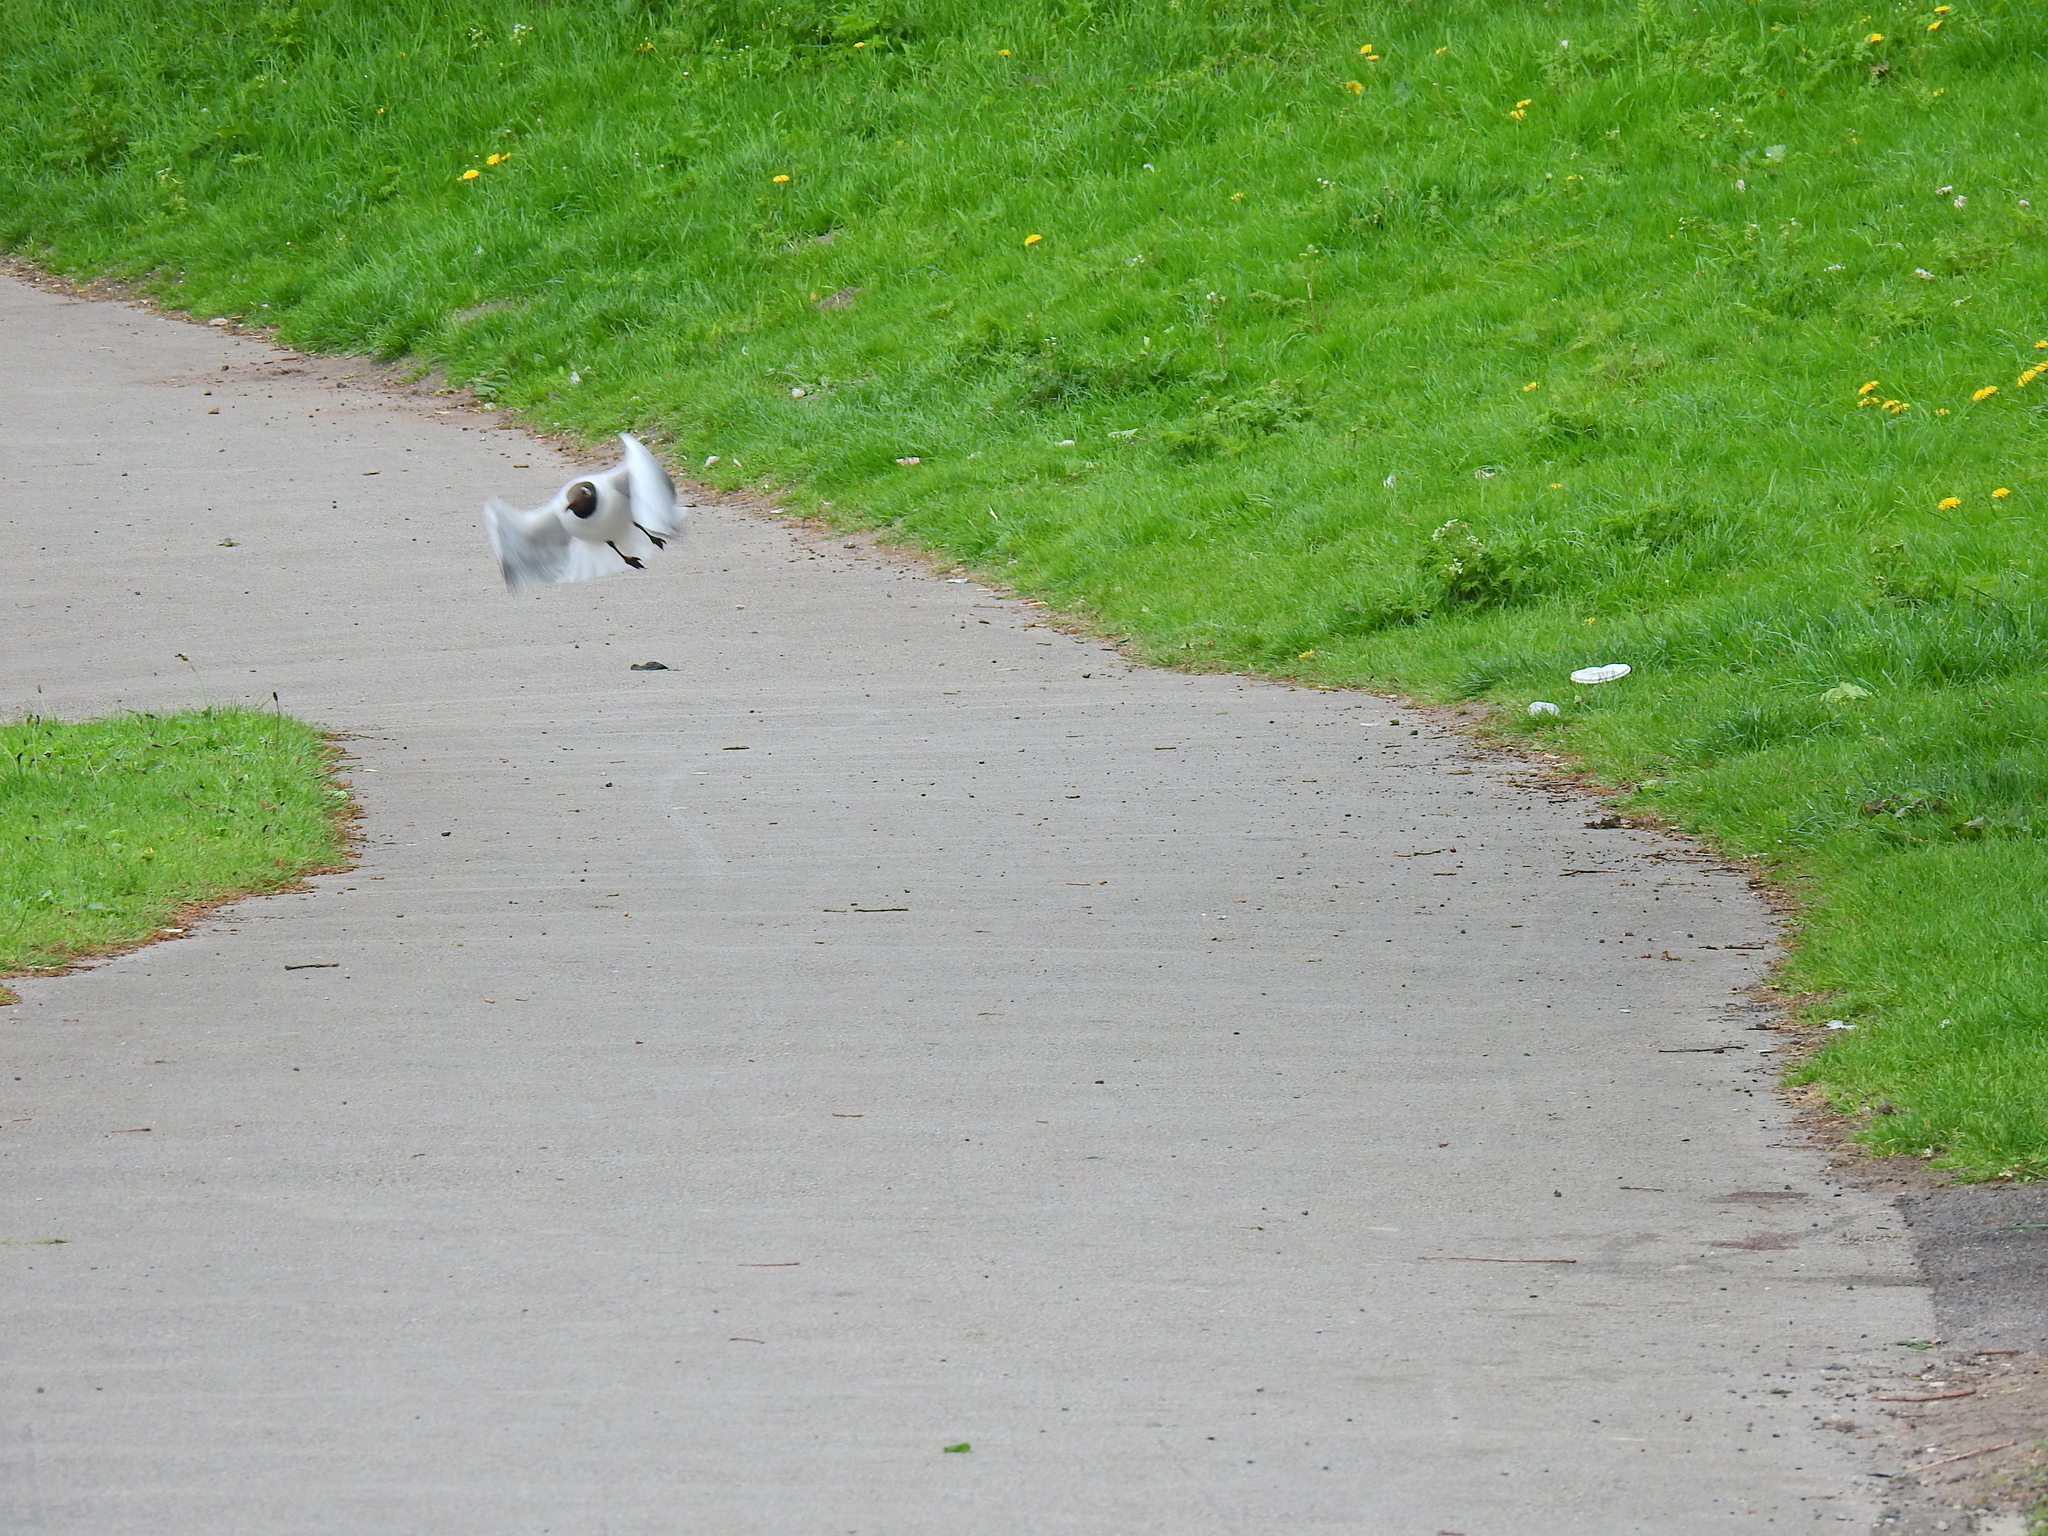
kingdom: Animalia
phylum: Chordata
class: Aves
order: Charadriiformes
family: Laridae
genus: Chroicocephalus
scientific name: Chroicocephalus ridibundus
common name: Black-headed gull
